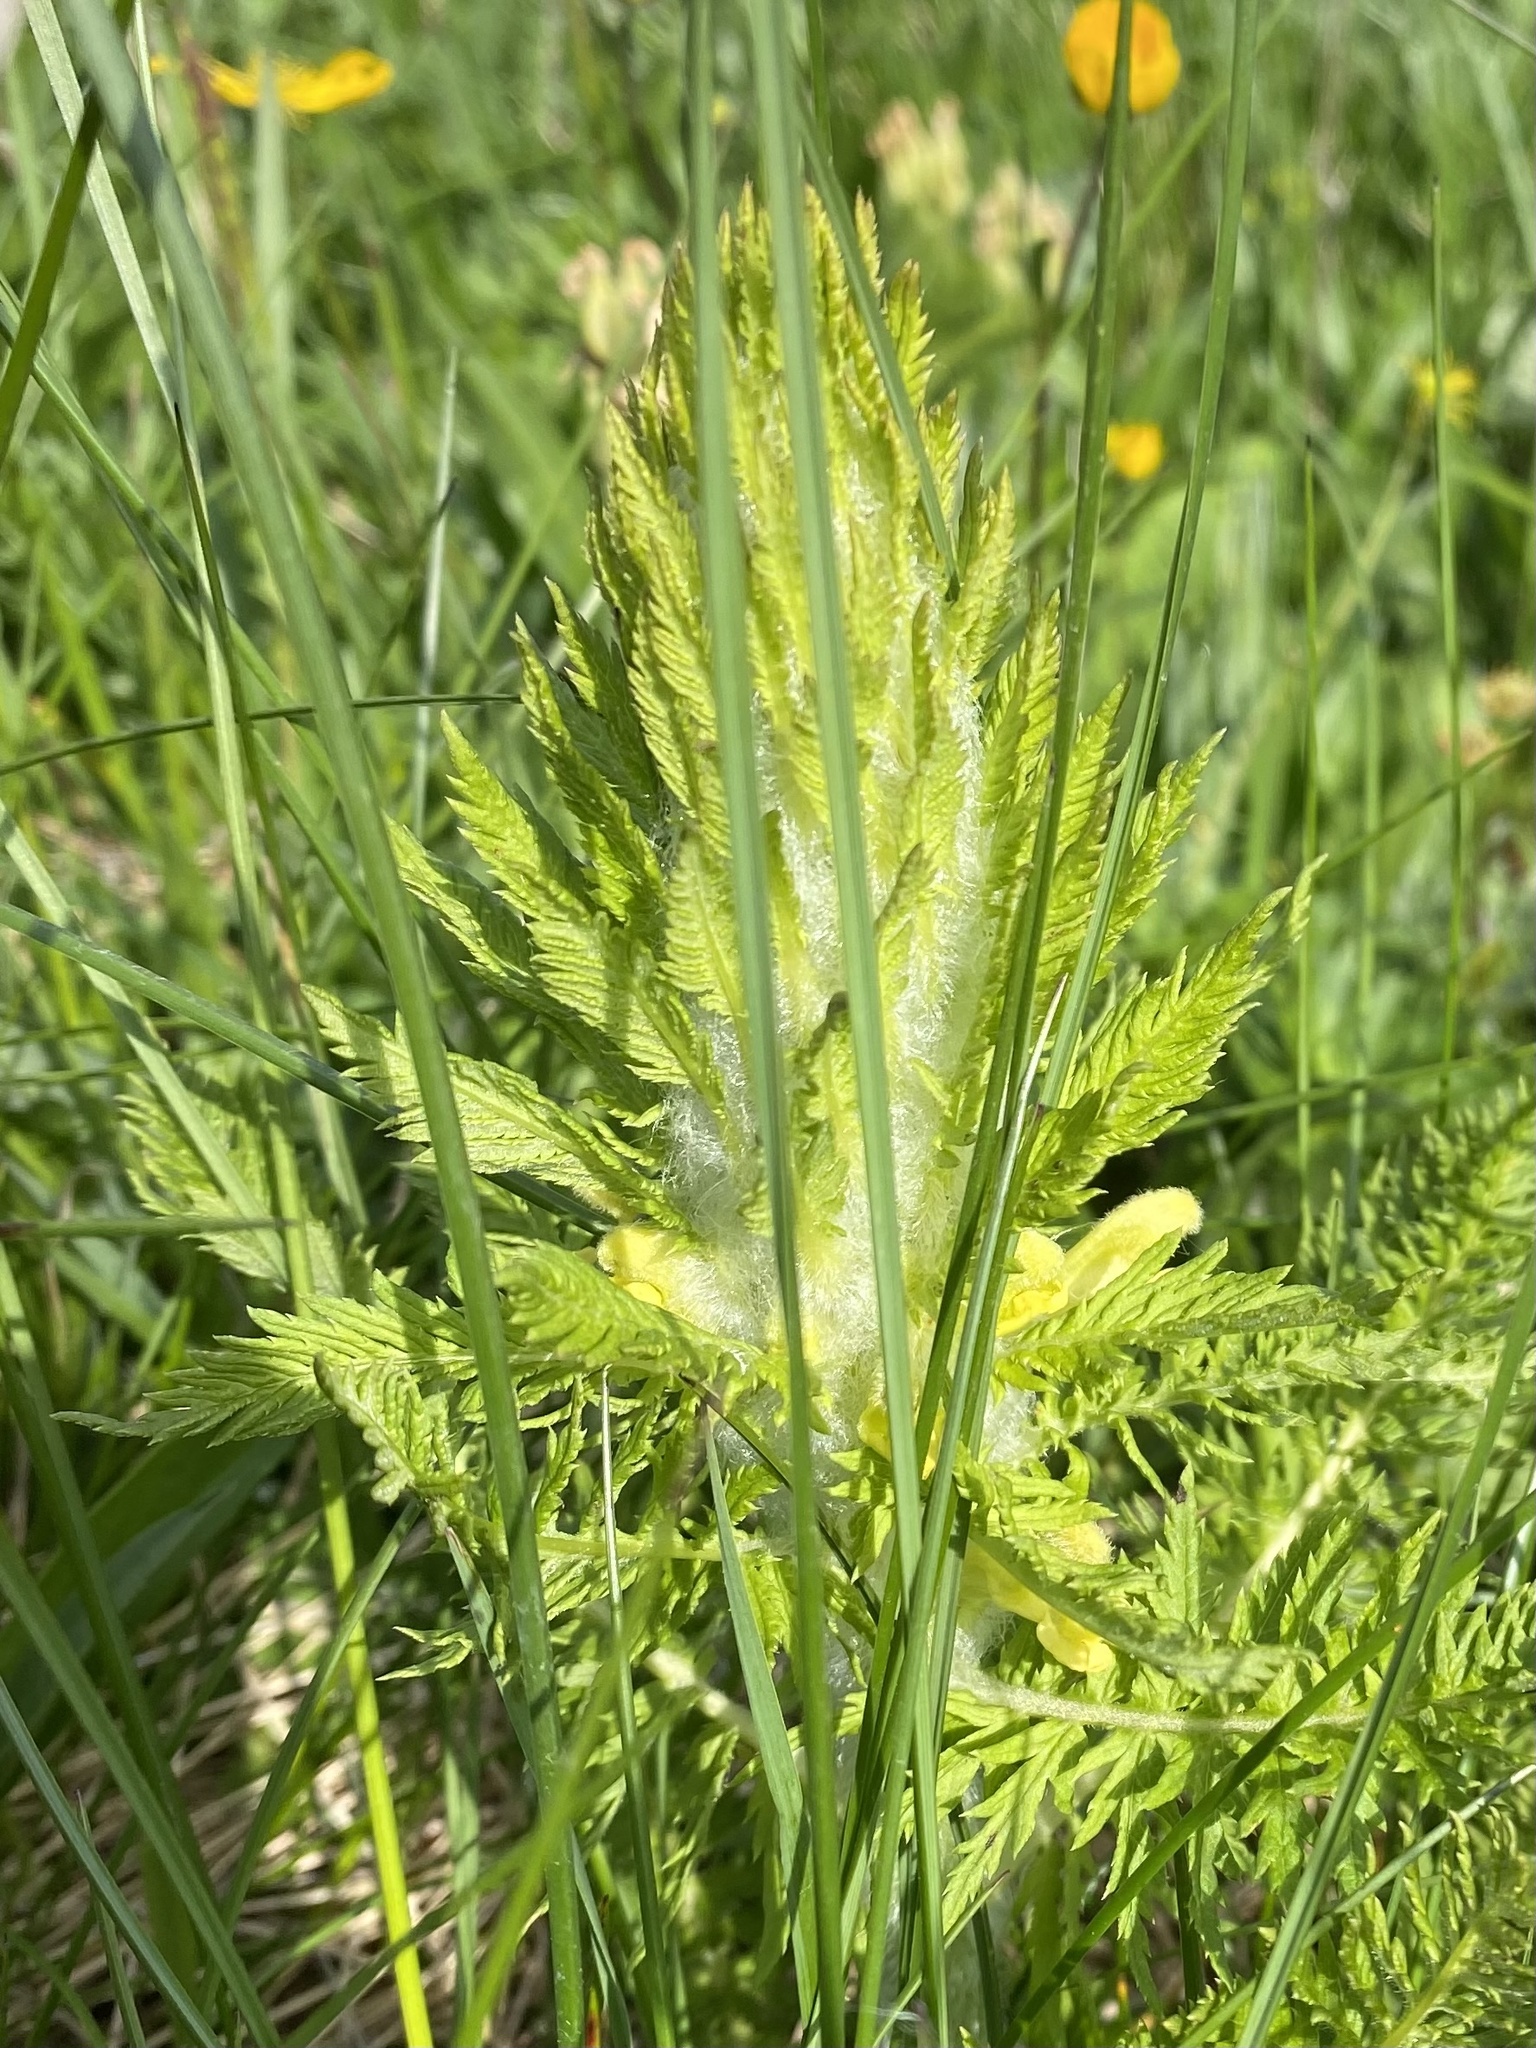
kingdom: Plantae
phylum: Tracheophyta
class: Magnoliopsida
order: Lamiales
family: Orobanchaceae
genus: Pedicularis
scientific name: Pedicularis condensata
